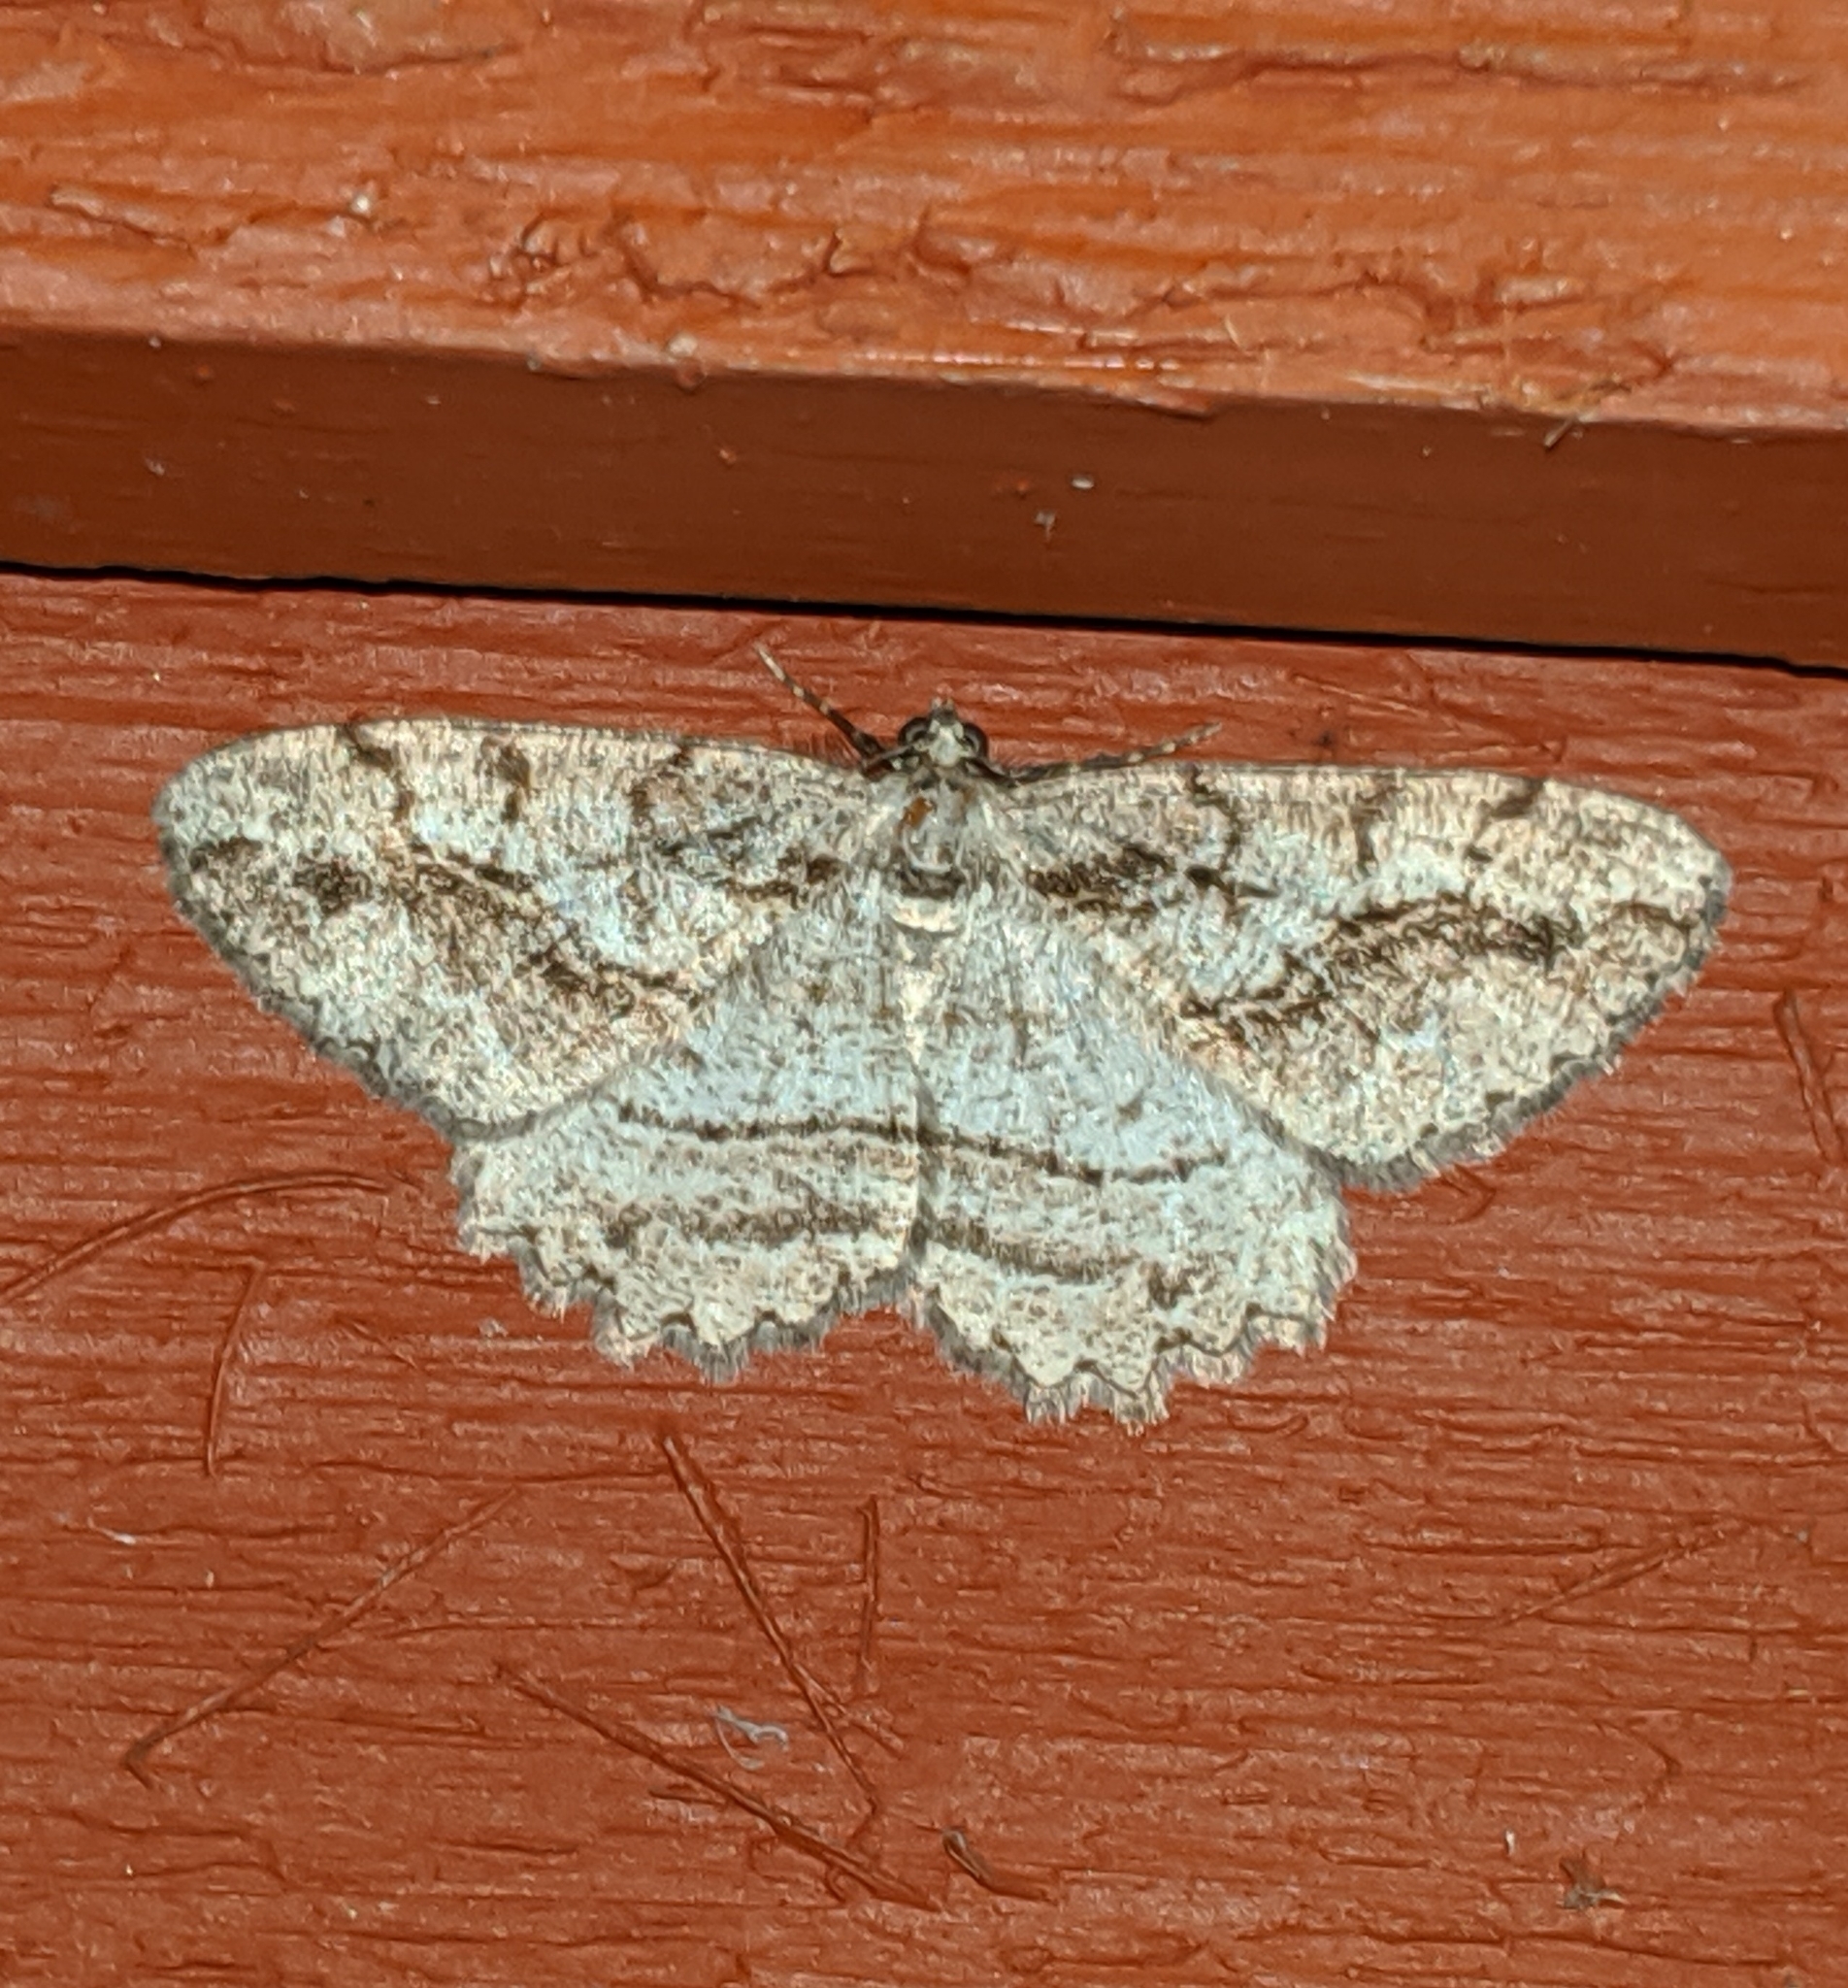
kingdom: Animalia
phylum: Arthropoda
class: Insecta
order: Lepidoptera
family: Geometridae
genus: Neoalcis
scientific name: Neoalcis californiaria
